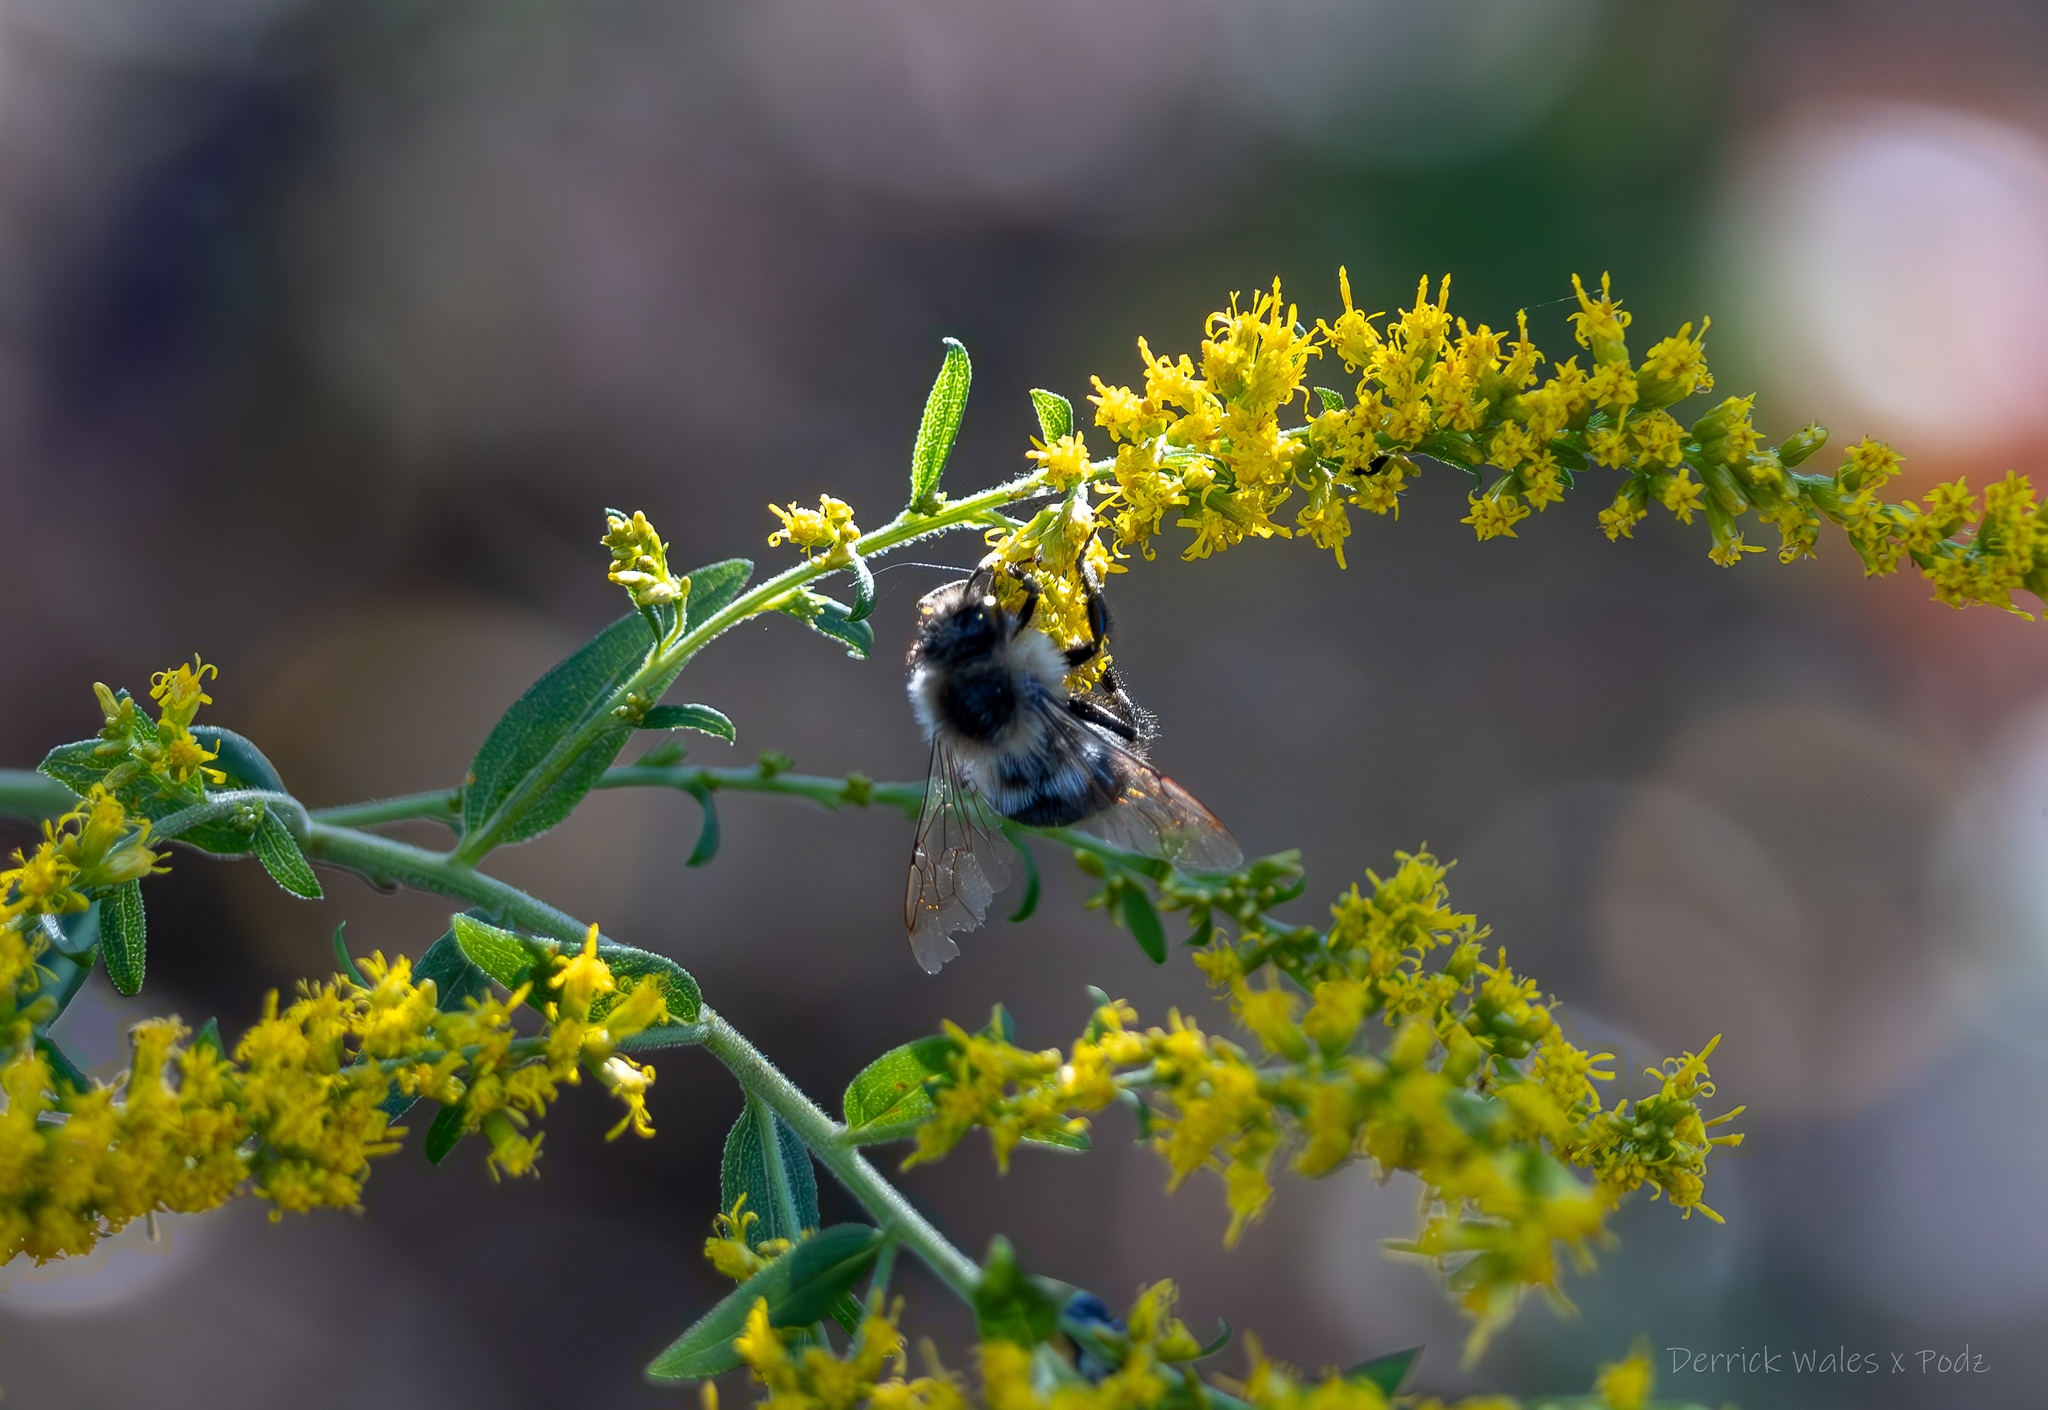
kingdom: Animalia
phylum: Arthropoda
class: Insecta
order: Hymenoptera
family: Apidae
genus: Bombus
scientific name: Bombus impatiens
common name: Common eastern bumble bee
